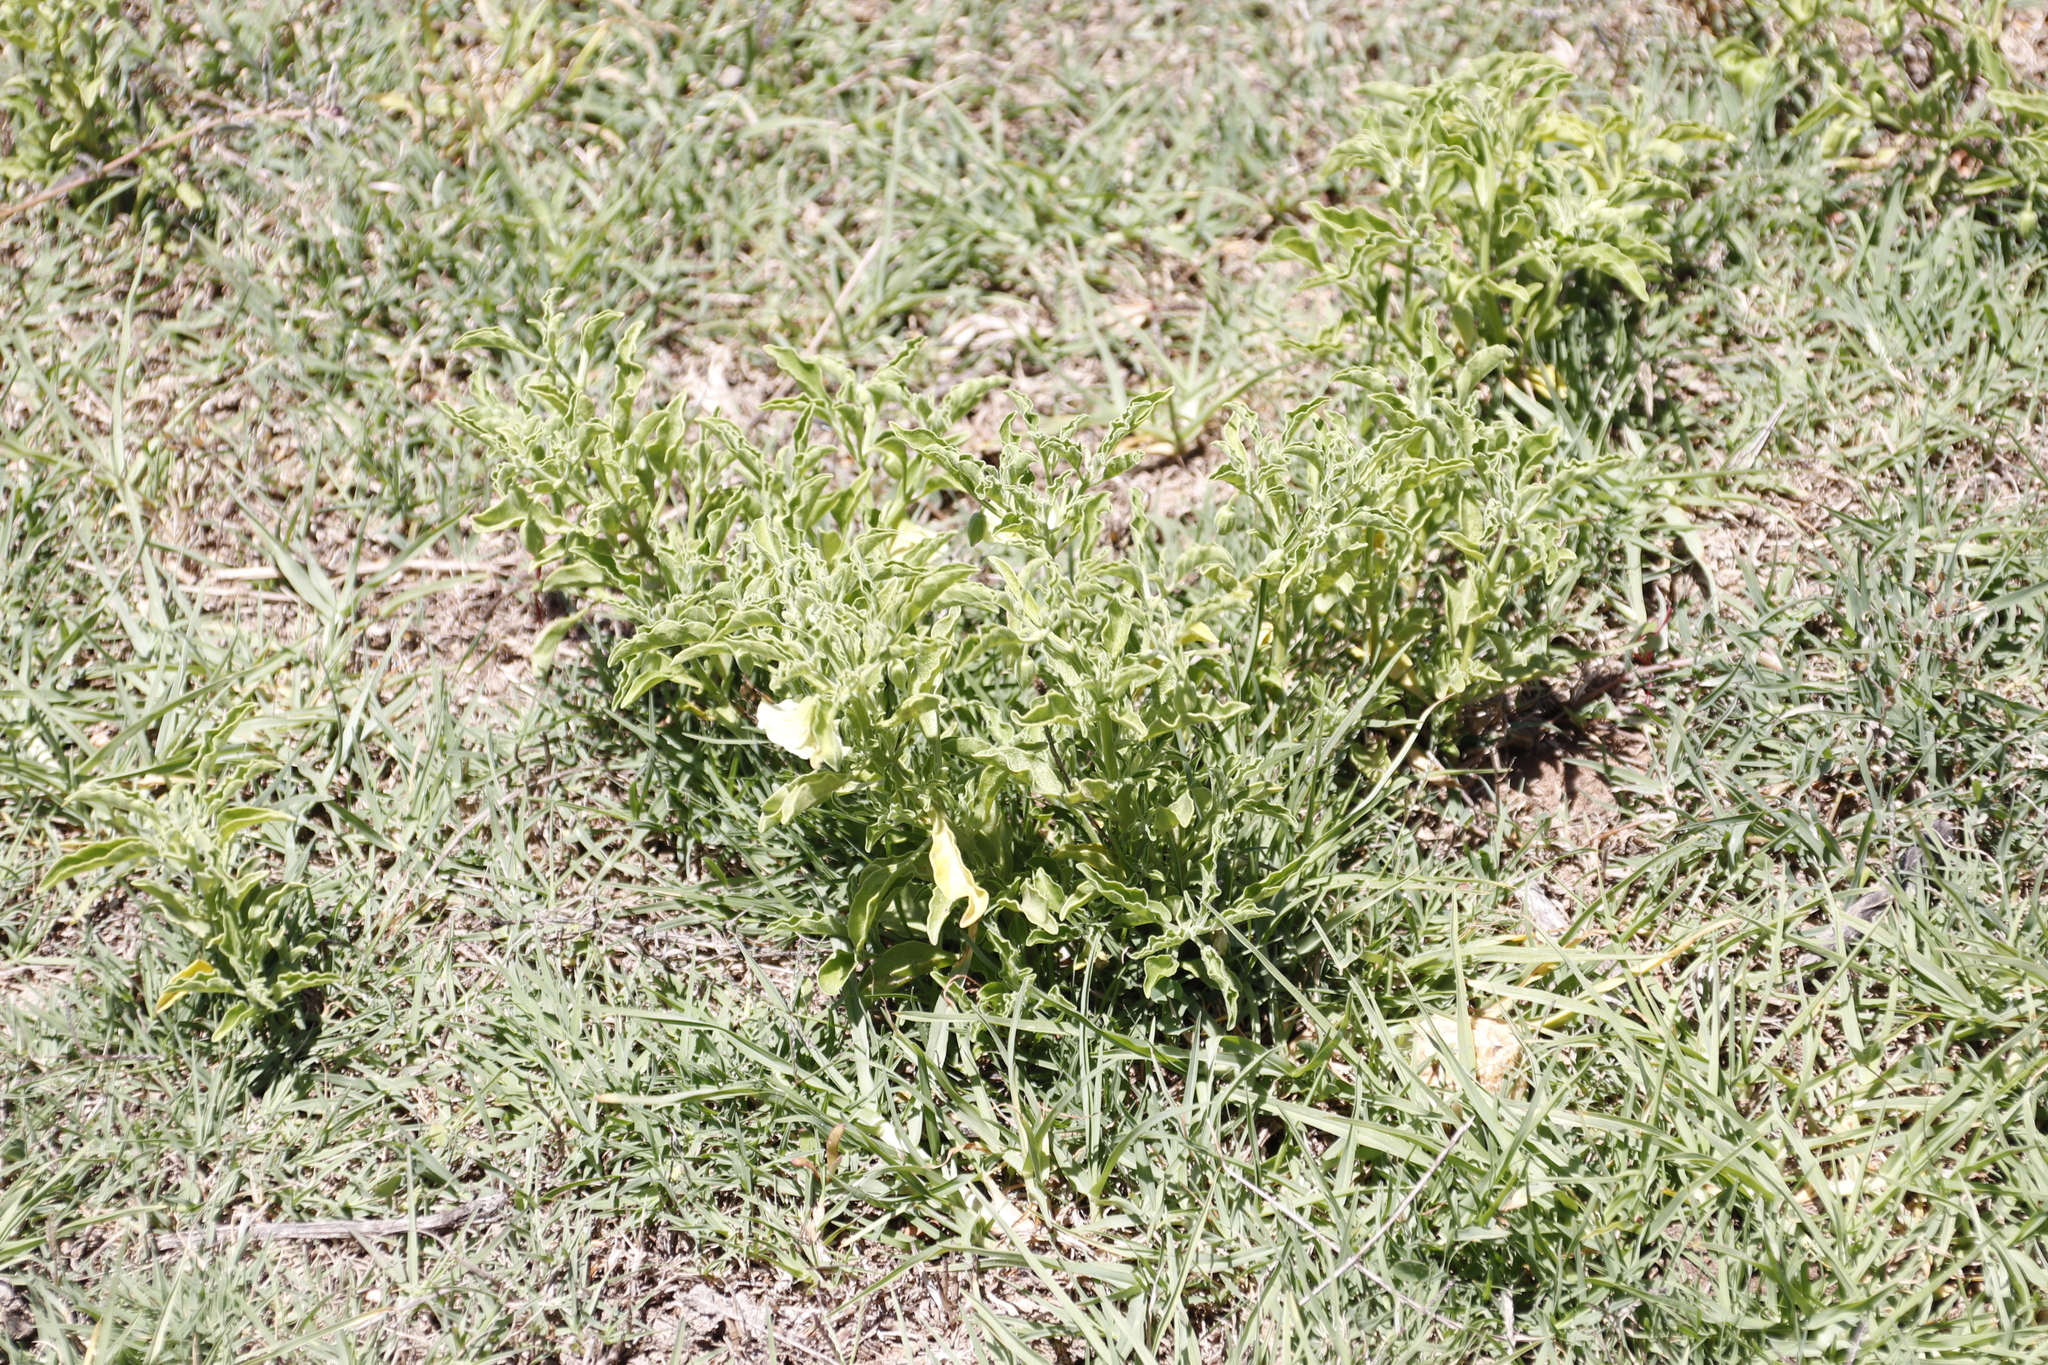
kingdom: Plantae
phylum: Tracheophyta
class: Magnoliopsida
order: Solanales
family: Solanaceae
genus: Physalis
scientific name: Physalis viscosa
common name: Stellate ground-cherry
